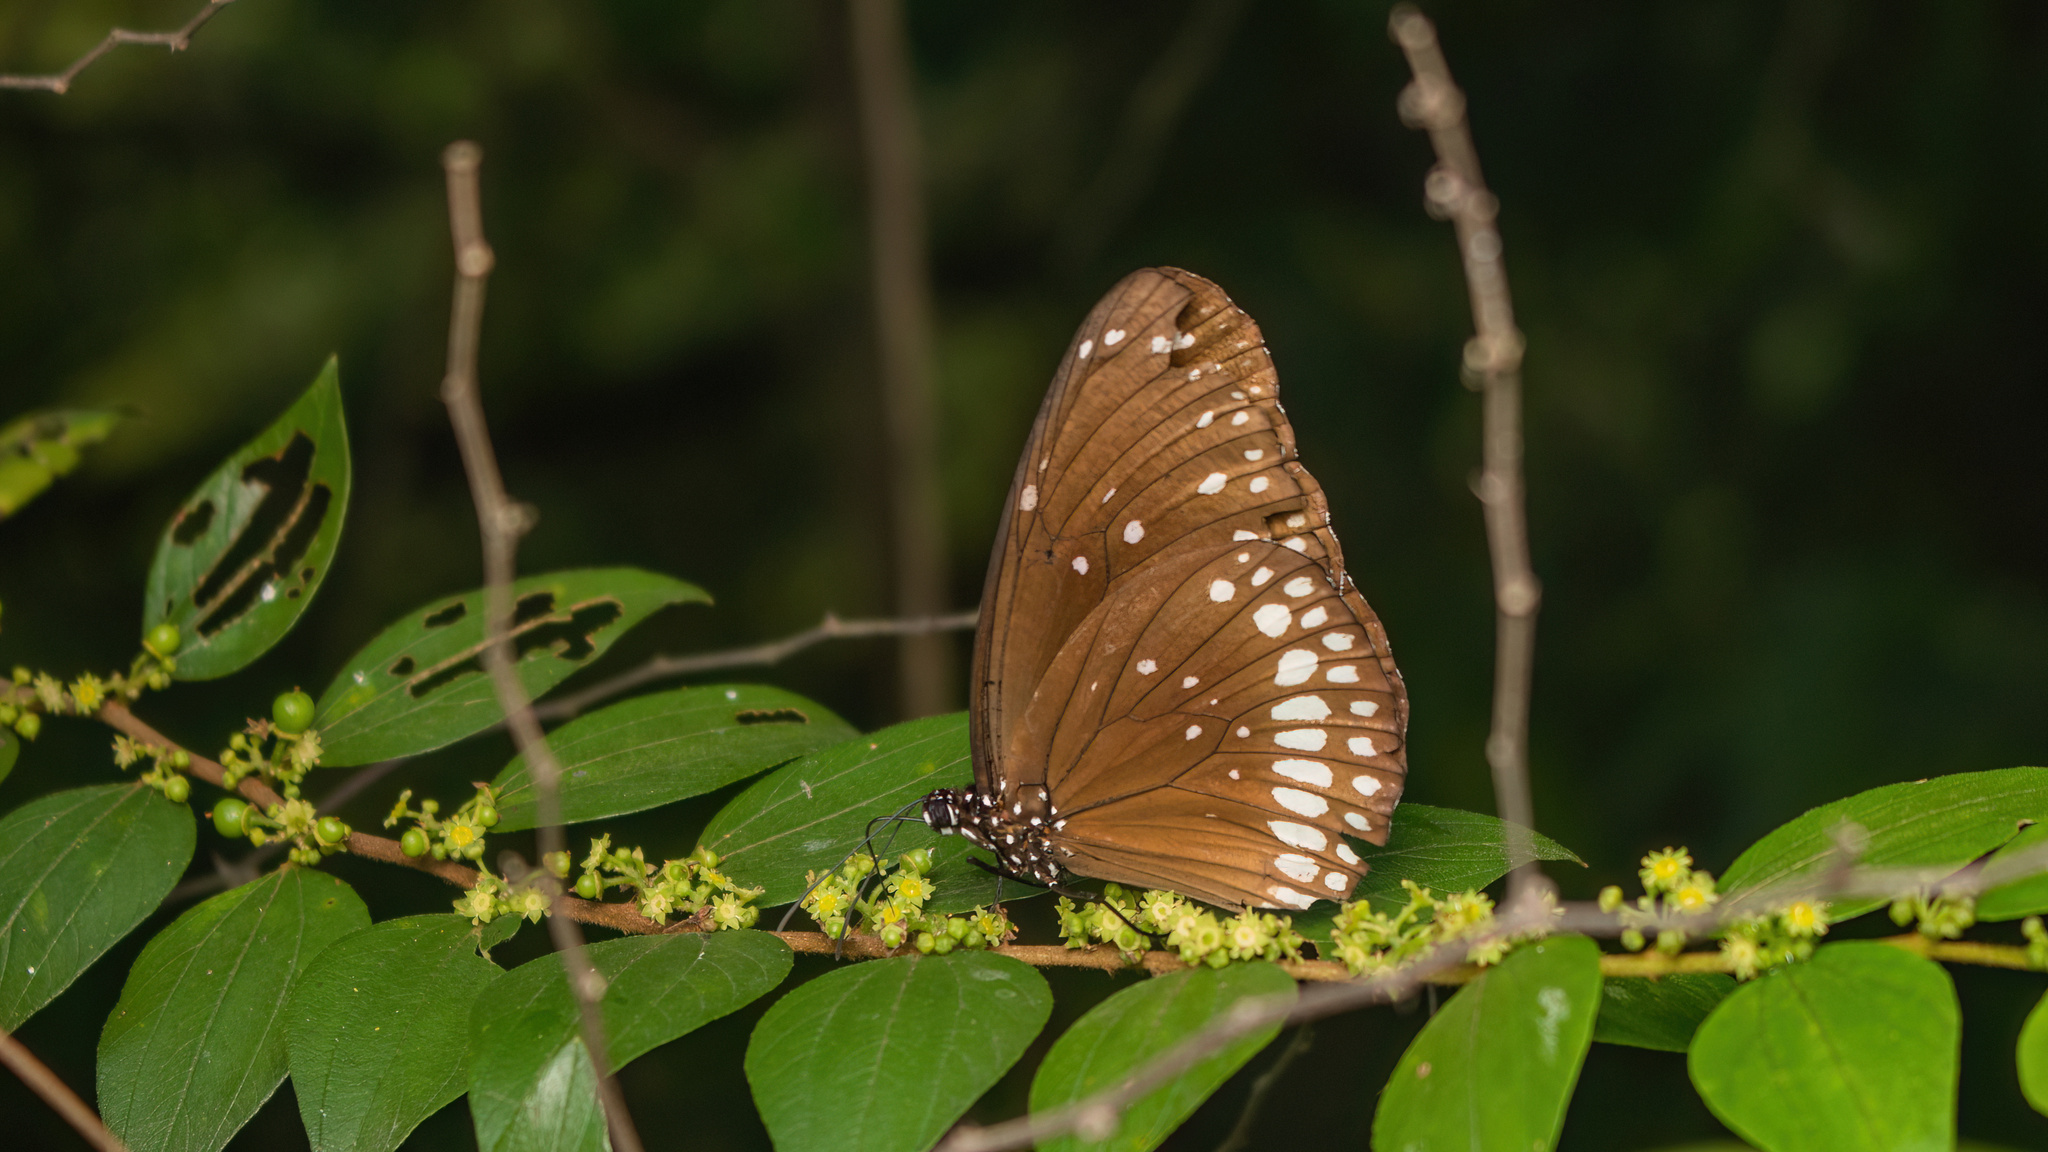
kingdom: Animalia
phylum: Arthropoda
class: Insecta
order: Lepidoptera
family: Nymphalidae
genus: Euploea
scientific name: Euploea core
